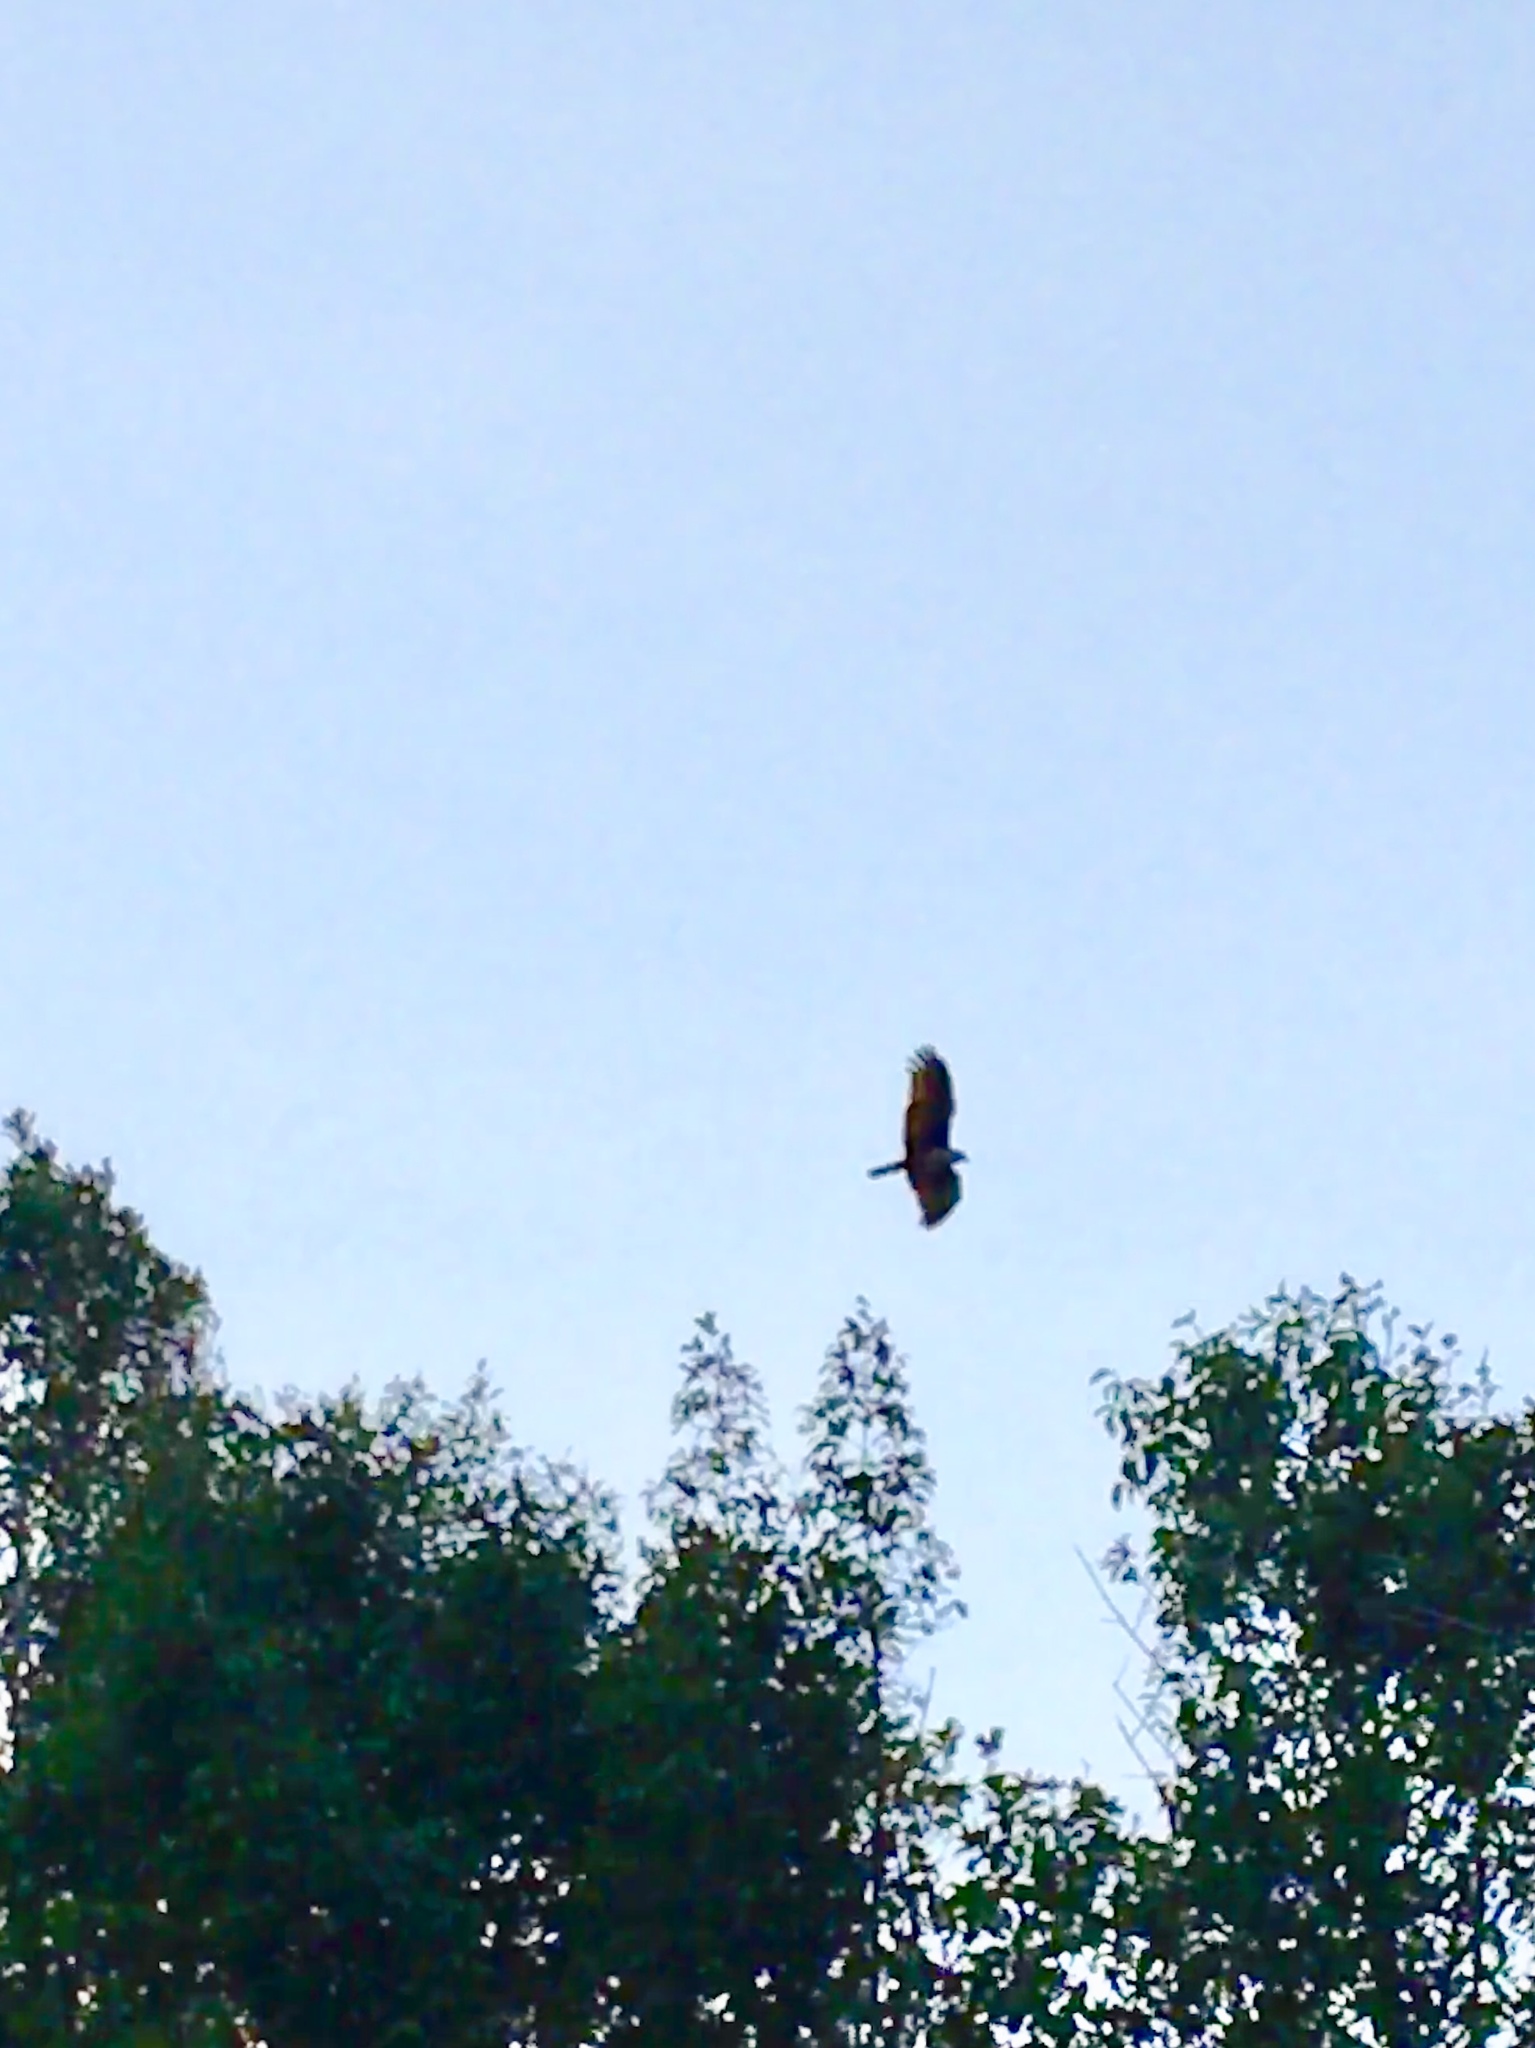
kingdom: Animalia
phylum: Chordata
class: Aves
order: Accipitriformes
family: Accipitridae
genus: Haliastur
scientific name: Haliastur indus
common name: Brahminy kite
